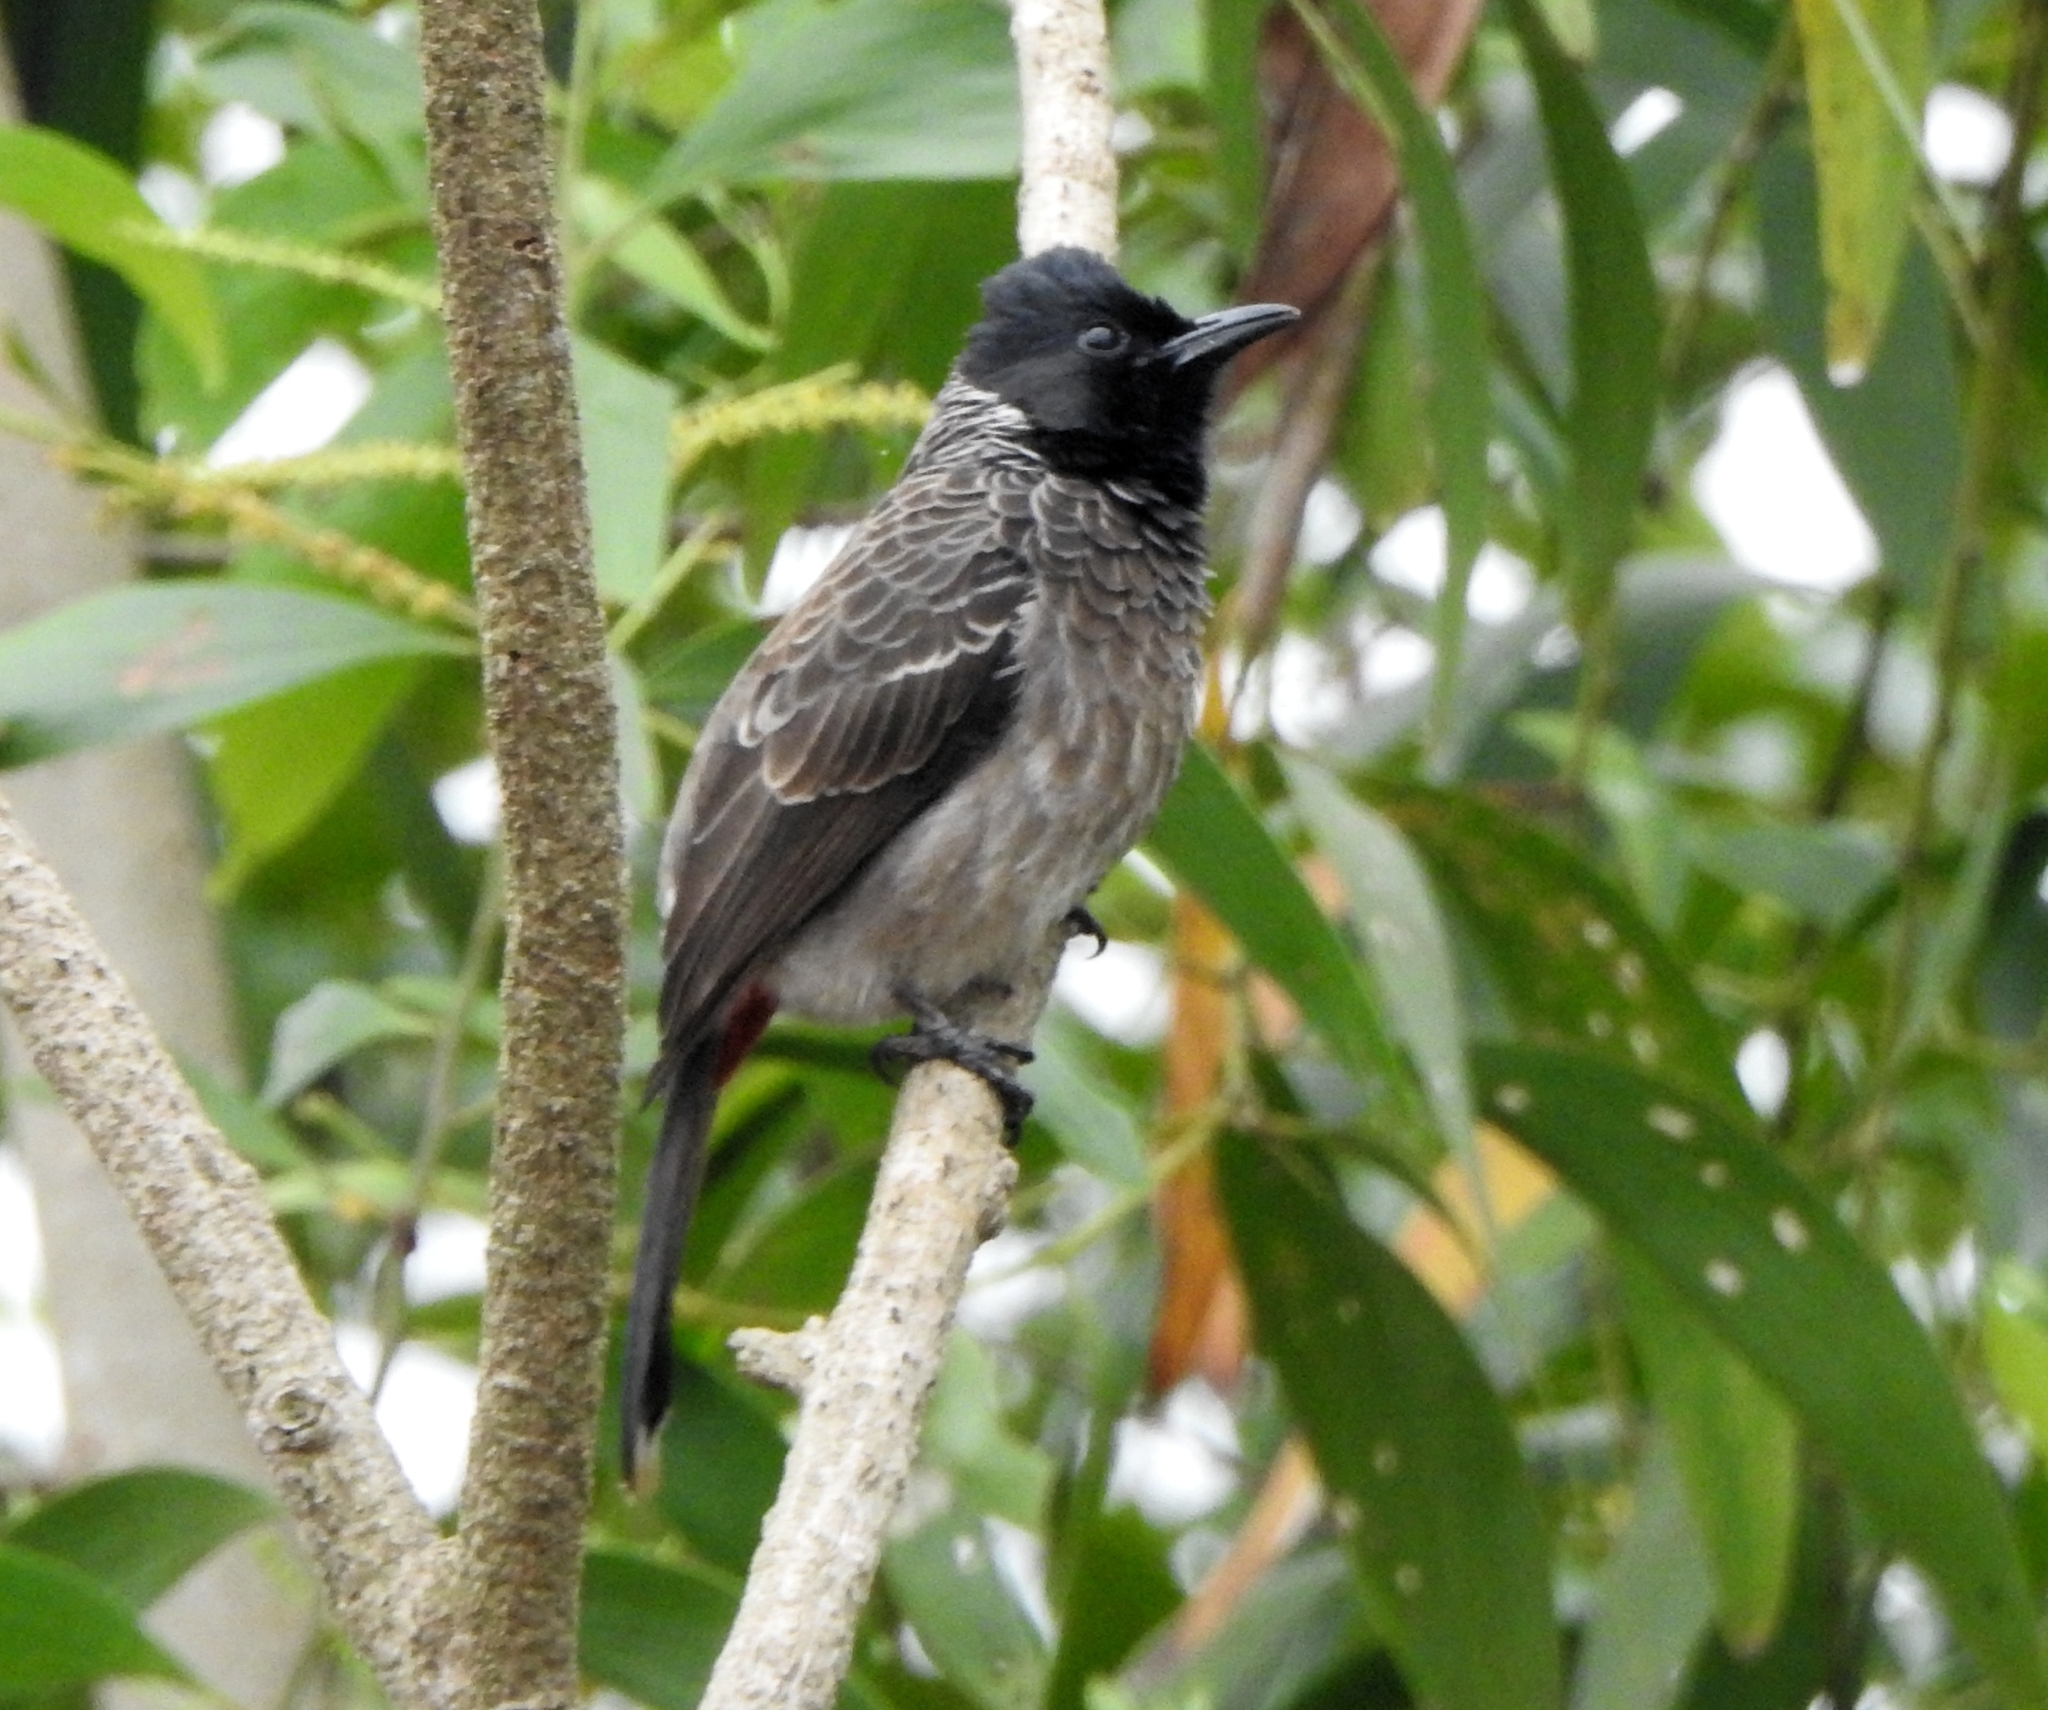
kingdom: Animalia
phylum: Chordata
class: Aves
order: Passeriformes
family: Pycnonotidae
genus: Pycnonotus
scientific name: Pycnonotus cafer
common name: Red-vented bulbul
